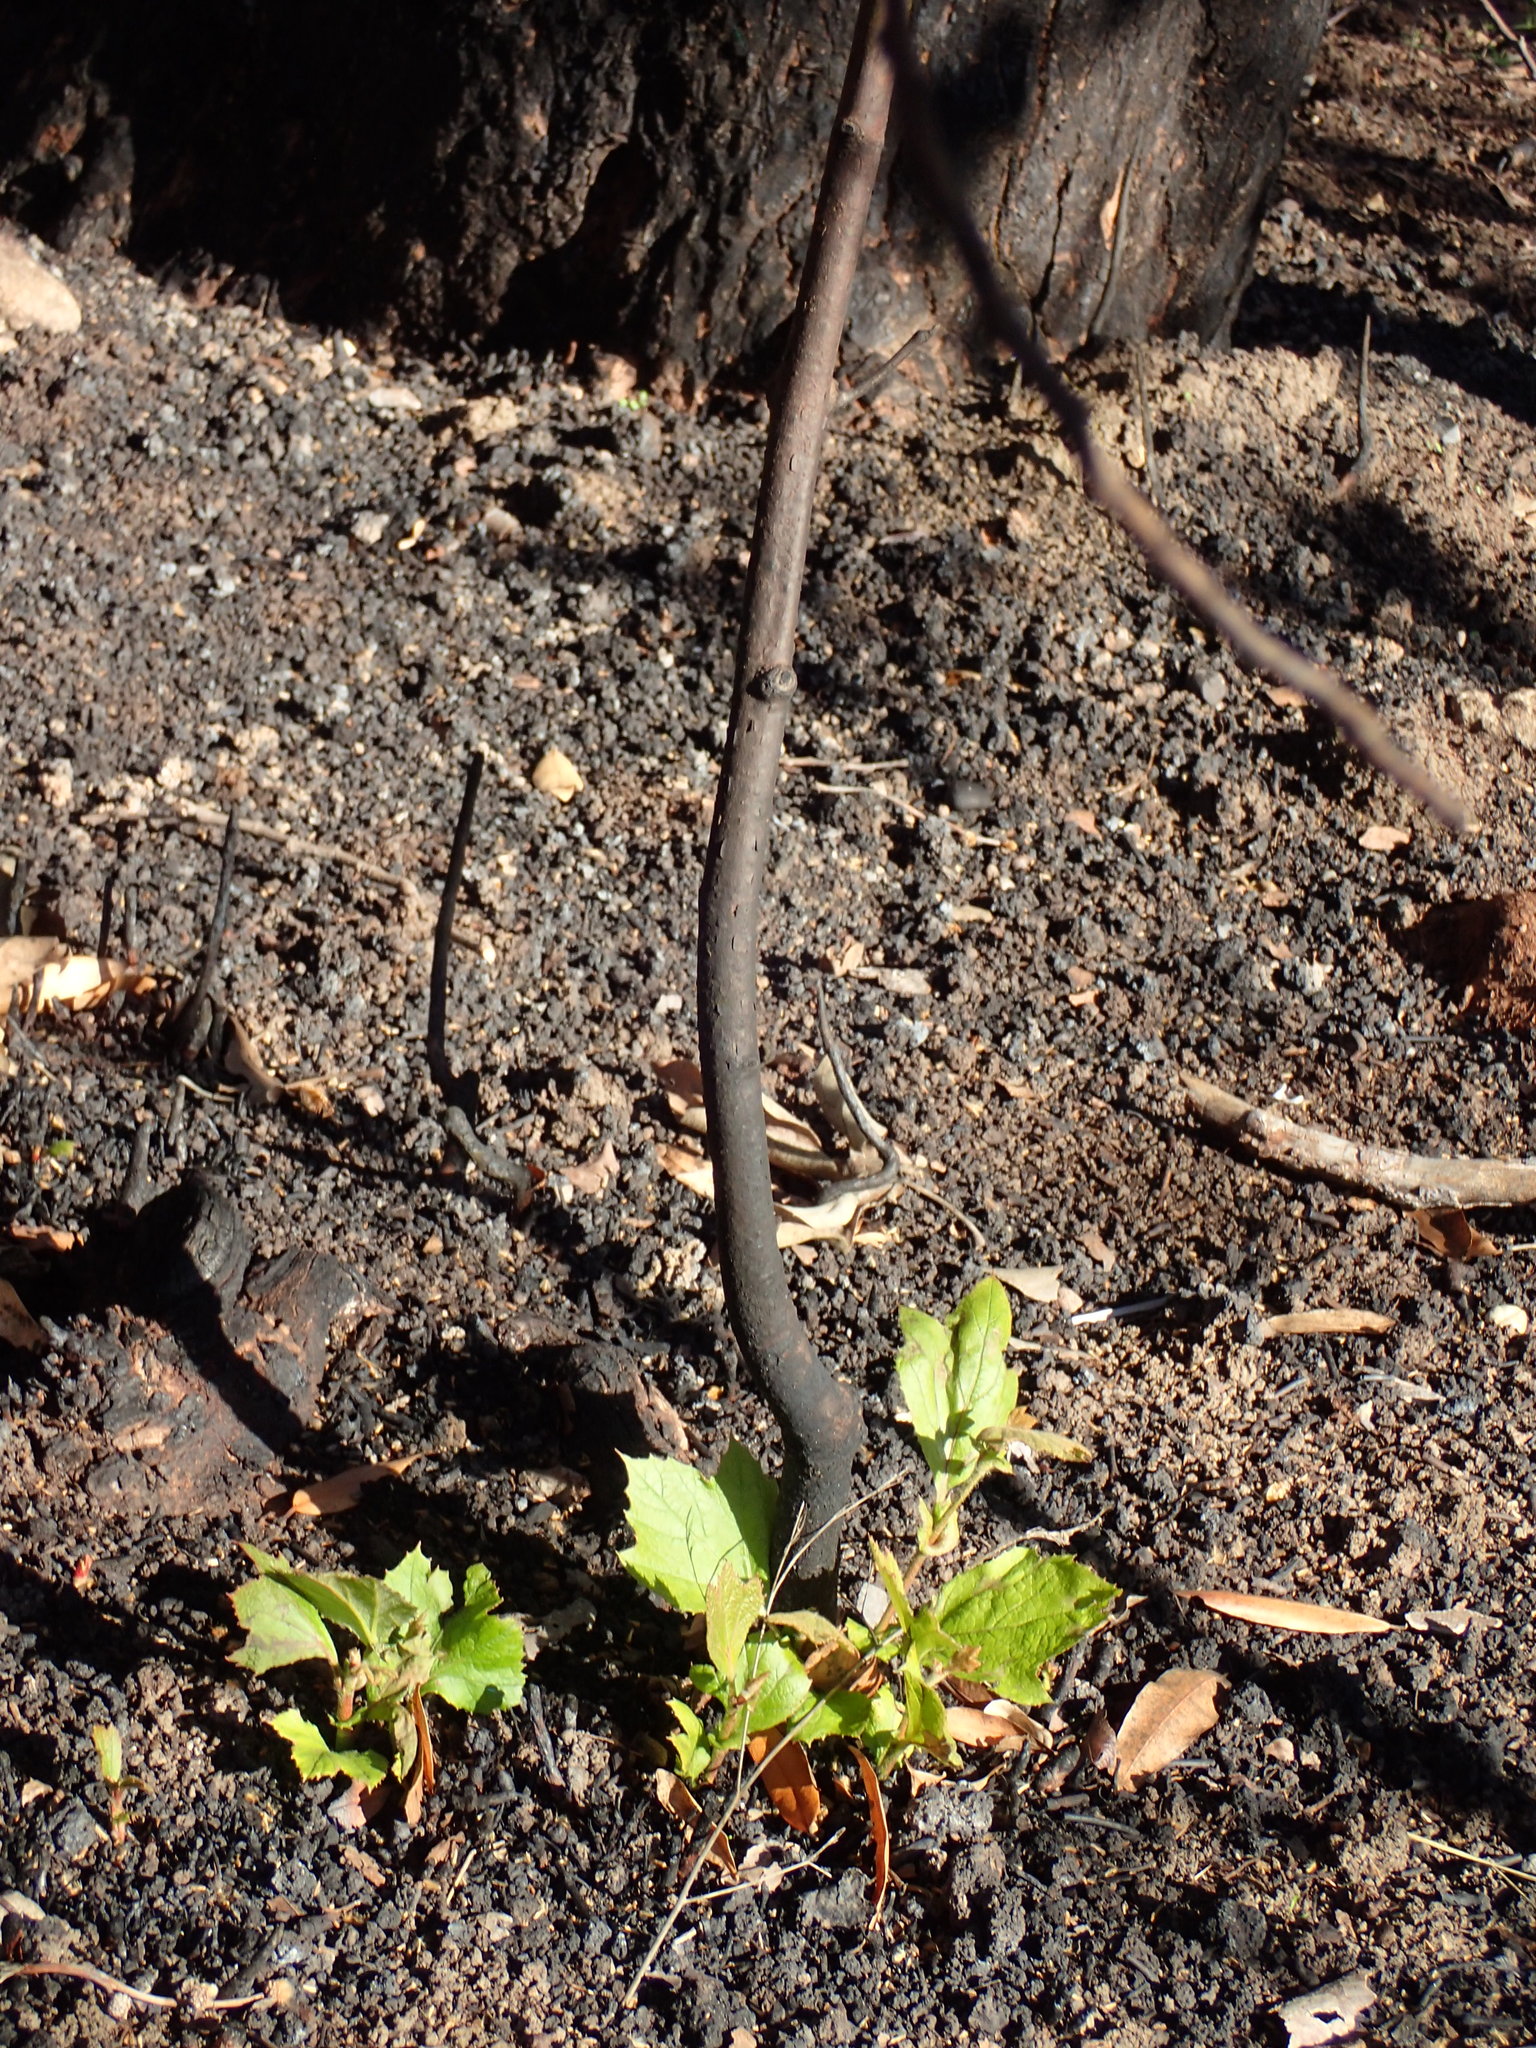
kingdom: Plantae
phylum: Tracheophyta
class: Magnoliopsida
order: Proteales
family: Platanaceae
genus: Platanus
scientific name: Platanus racemosa
